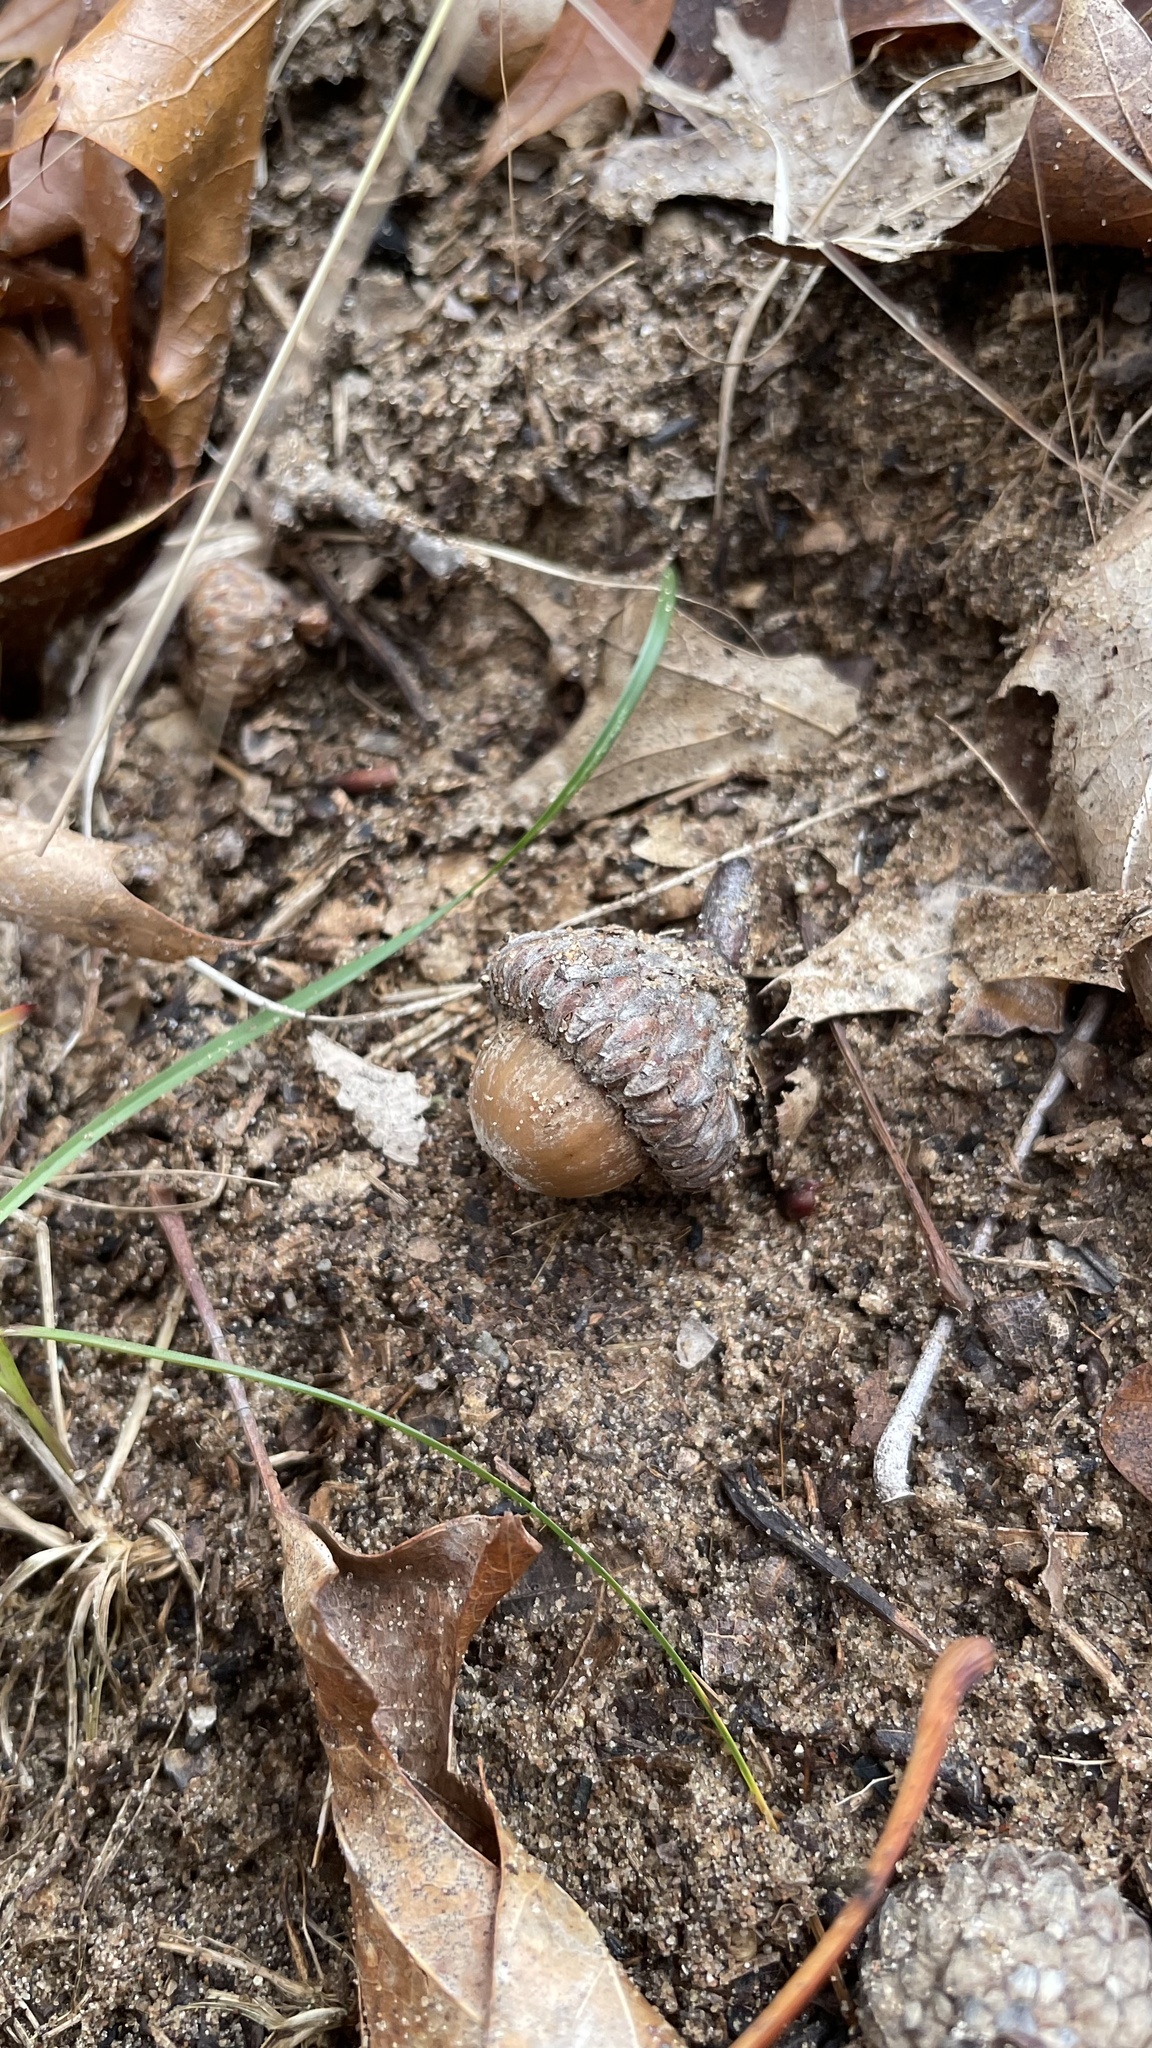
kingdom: Plantae
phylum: Tracheophyta
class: Magnoliopsida
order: Fagales
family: Fagaceae
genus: Quercus
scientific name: Quercus velutina
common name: Black oak
